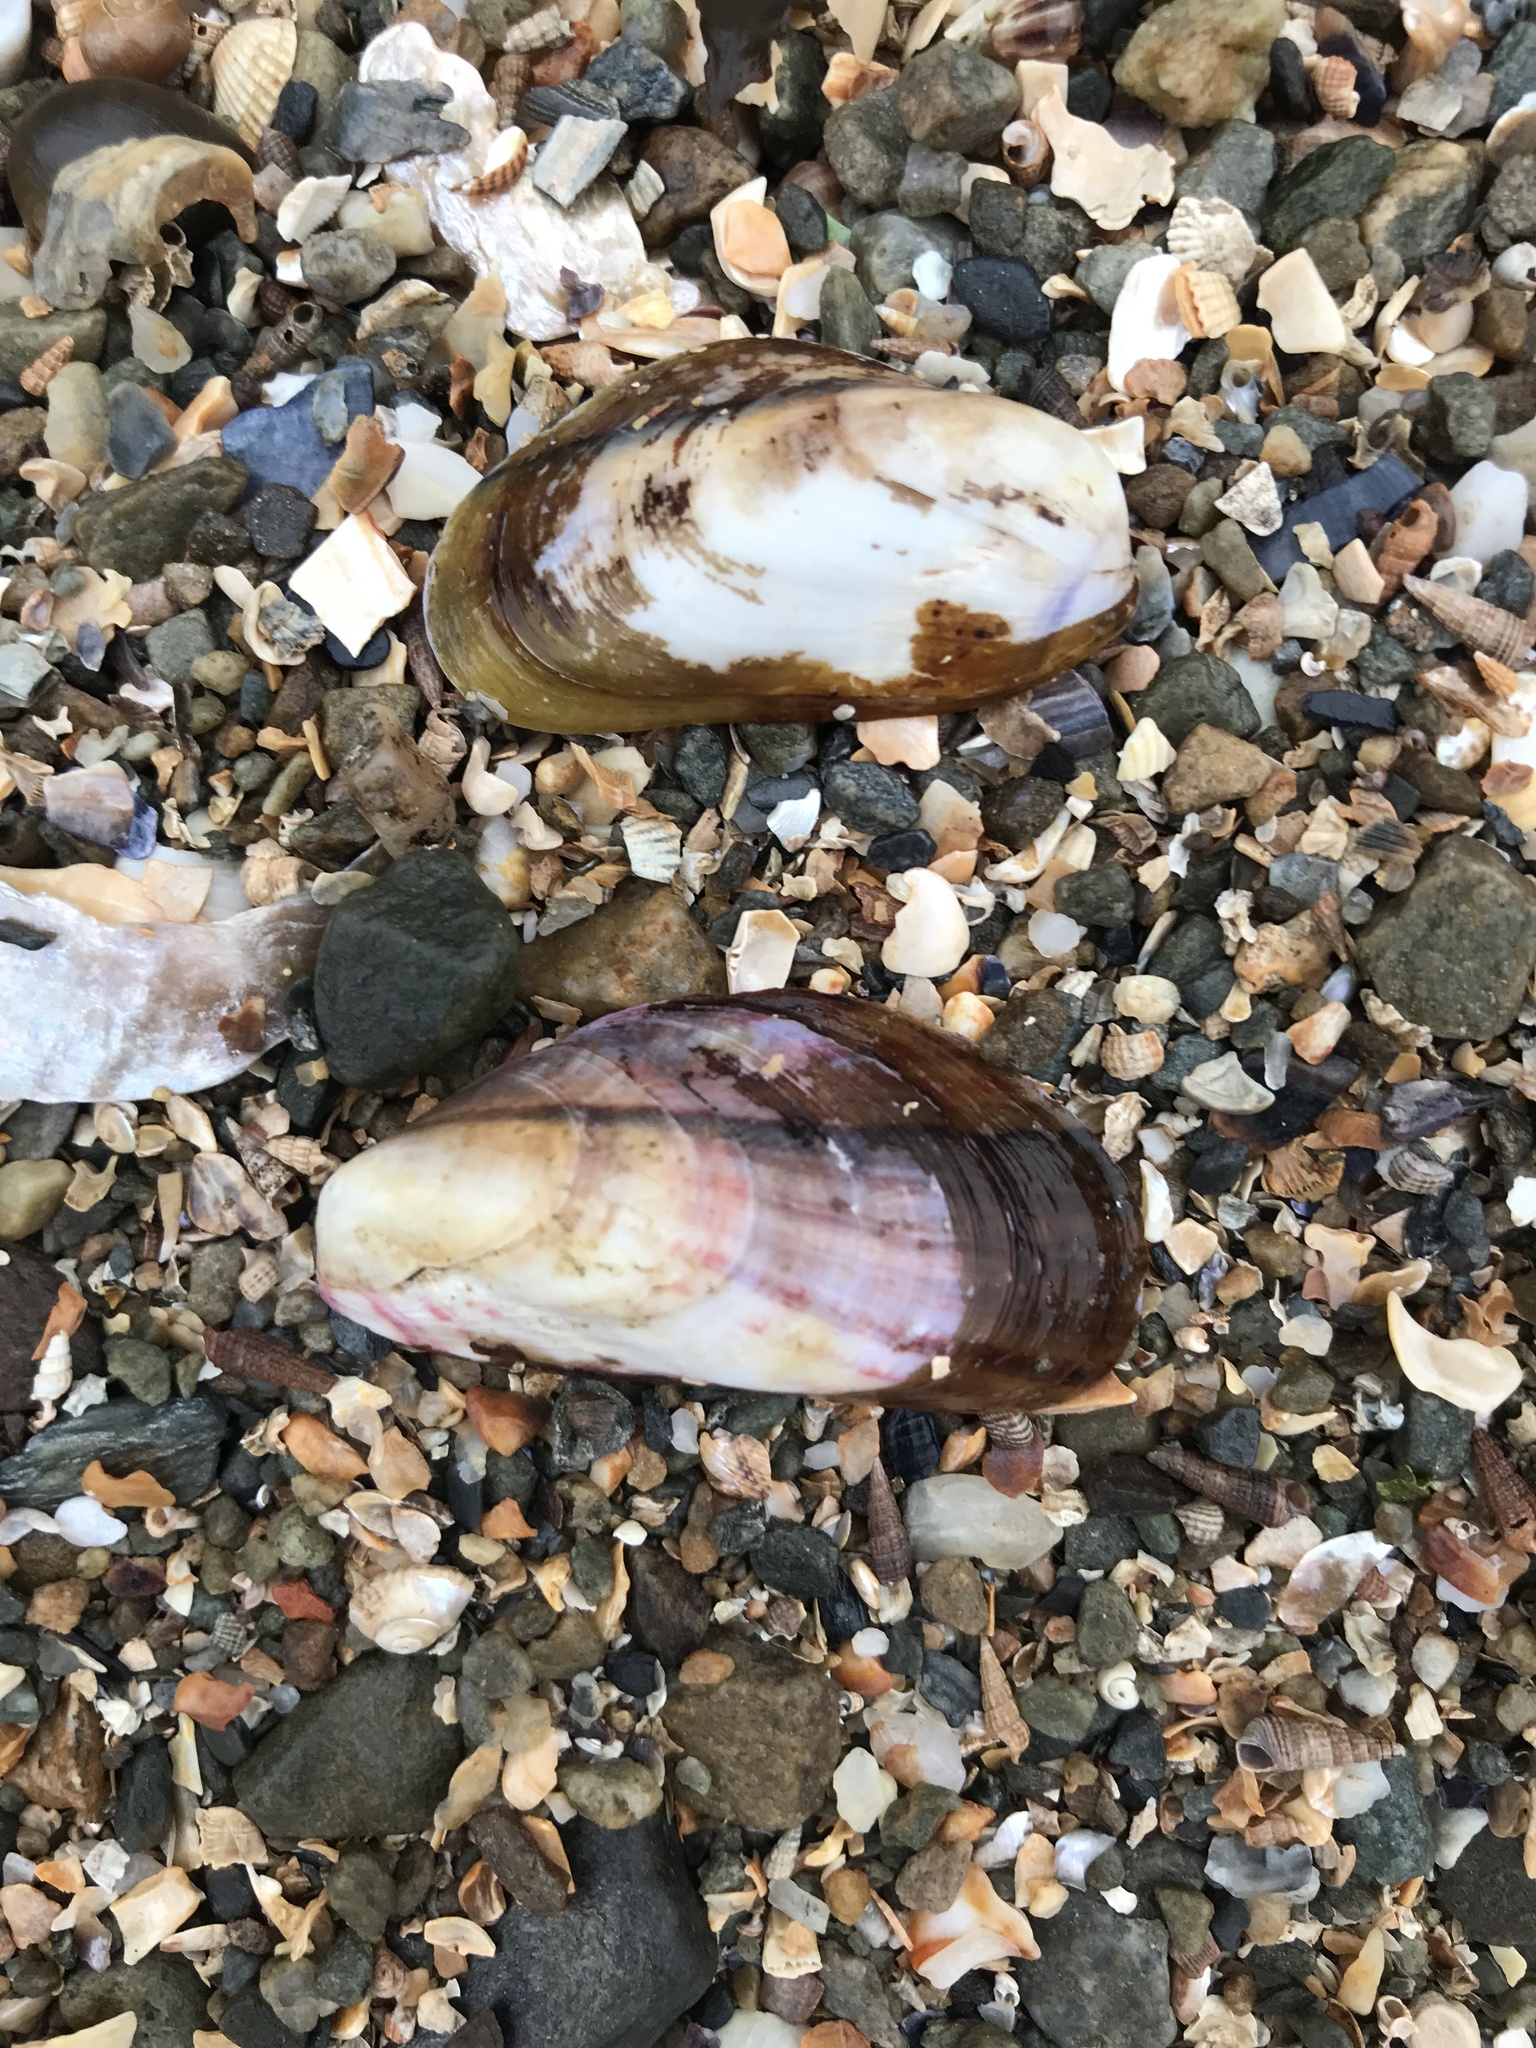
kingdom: Animalia
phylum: Mollusca
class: Bivalvia
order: Mytilida
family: Mytilidae
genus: Modiolus
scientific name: Modiolus adriaticus
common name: Adriatic mussel
